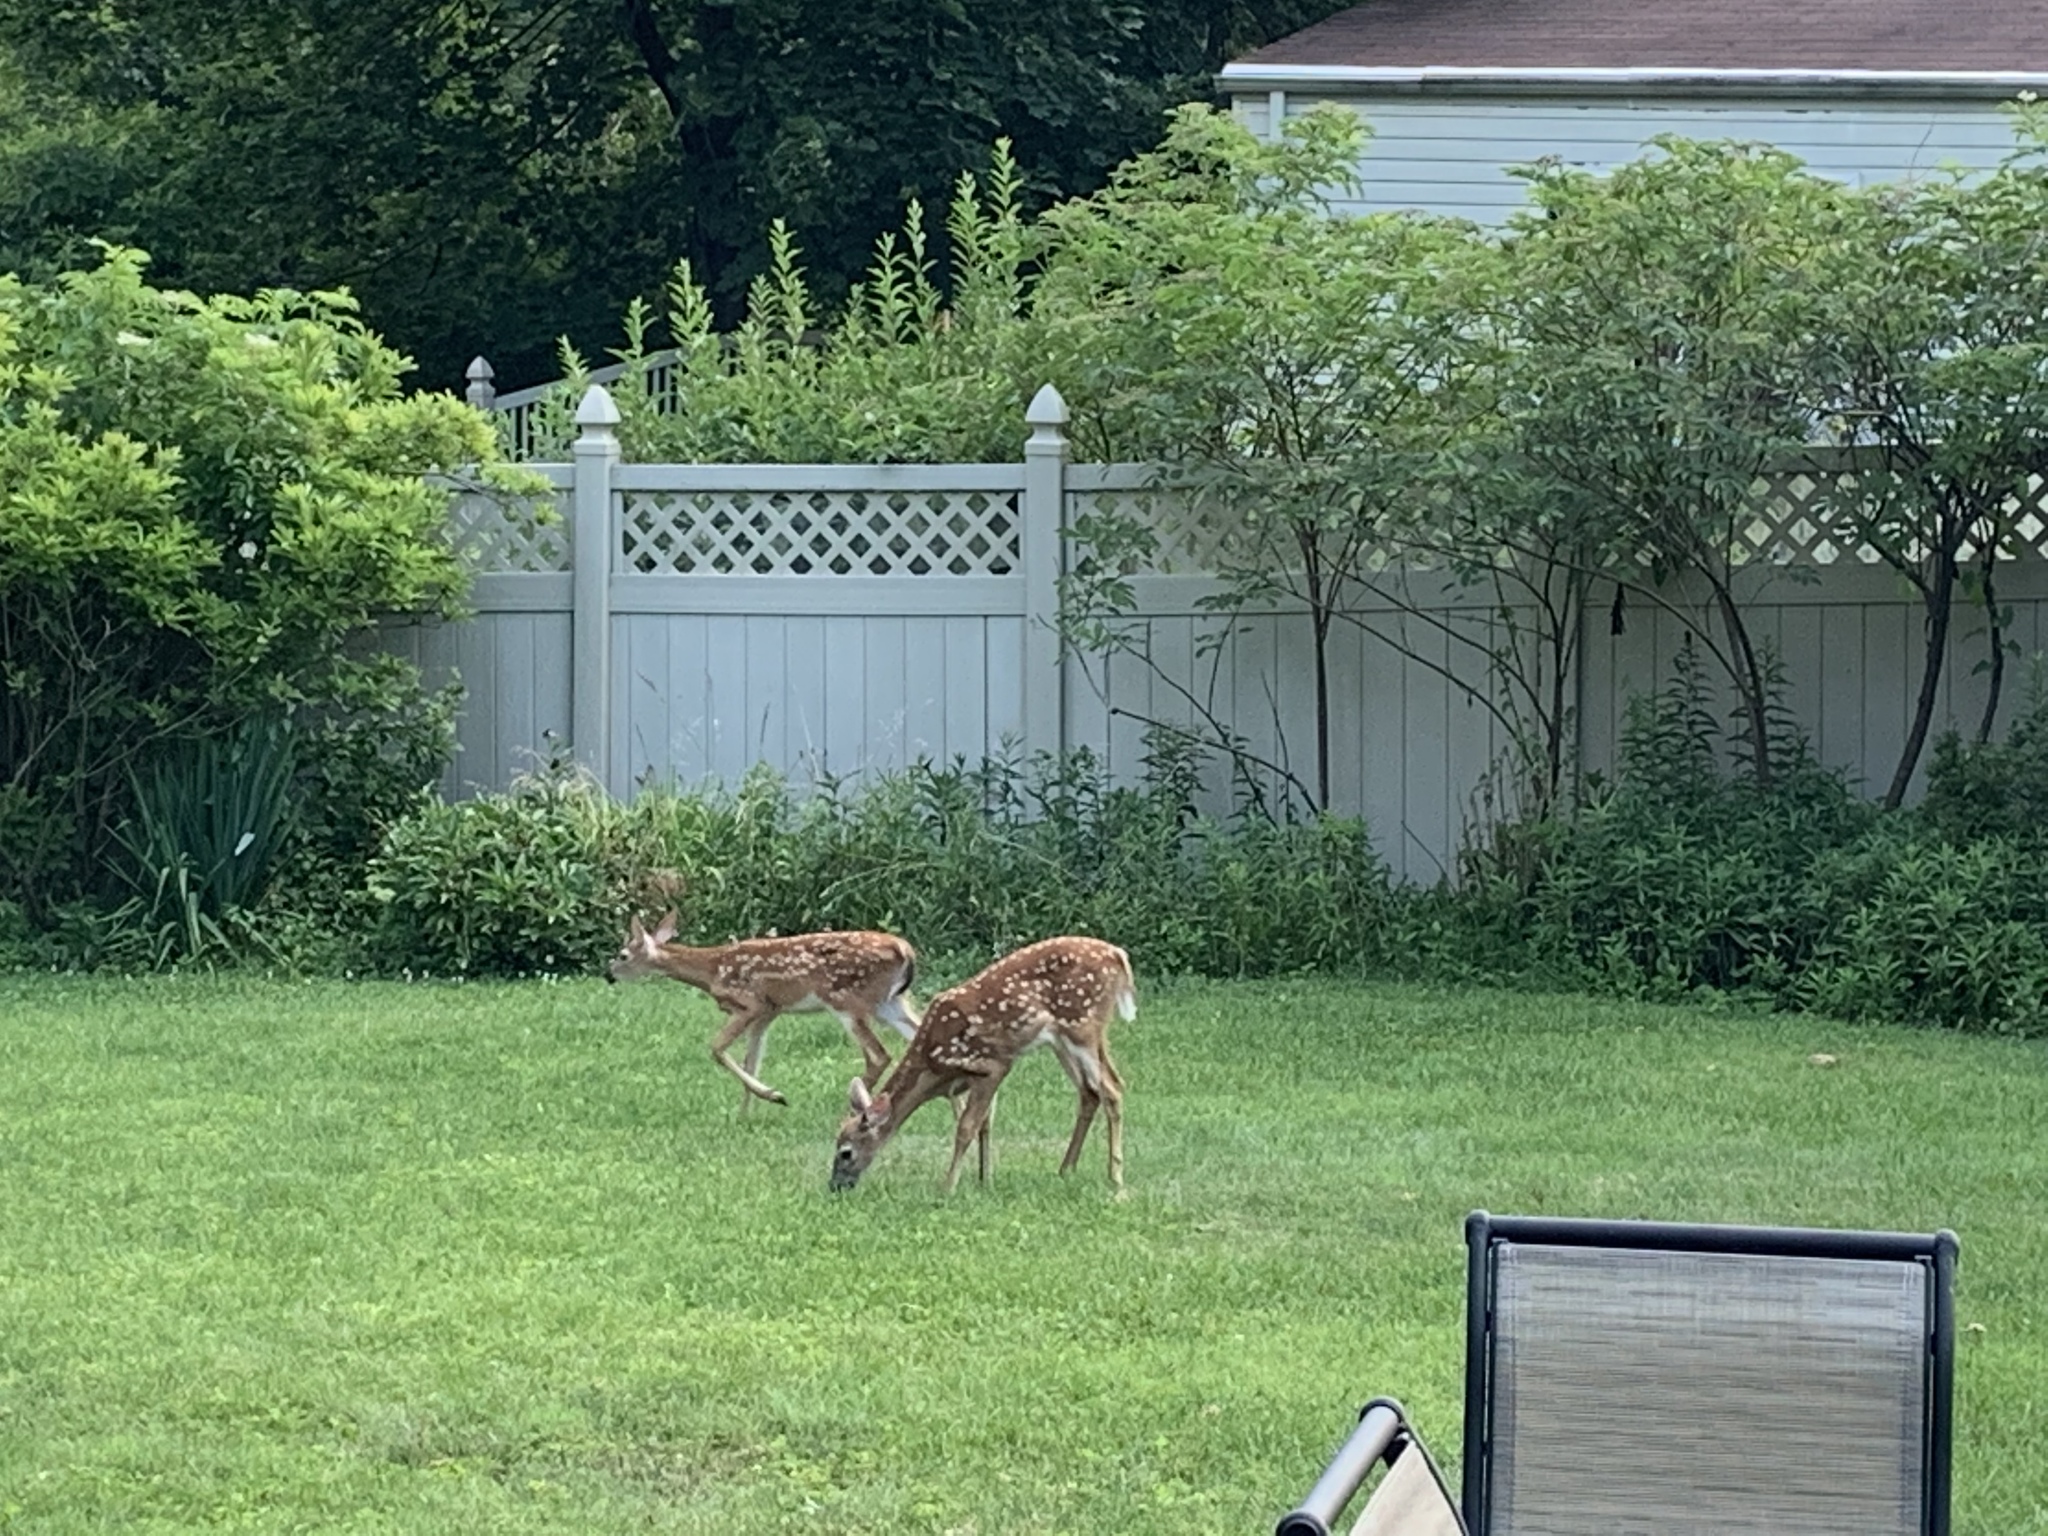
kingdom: Animalia
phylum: Chordata
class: Mammalia
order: Artiodactyla
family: Cervidae
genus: Odocoileus
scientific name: Odocoileus virginianus
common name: White-tailed deer
